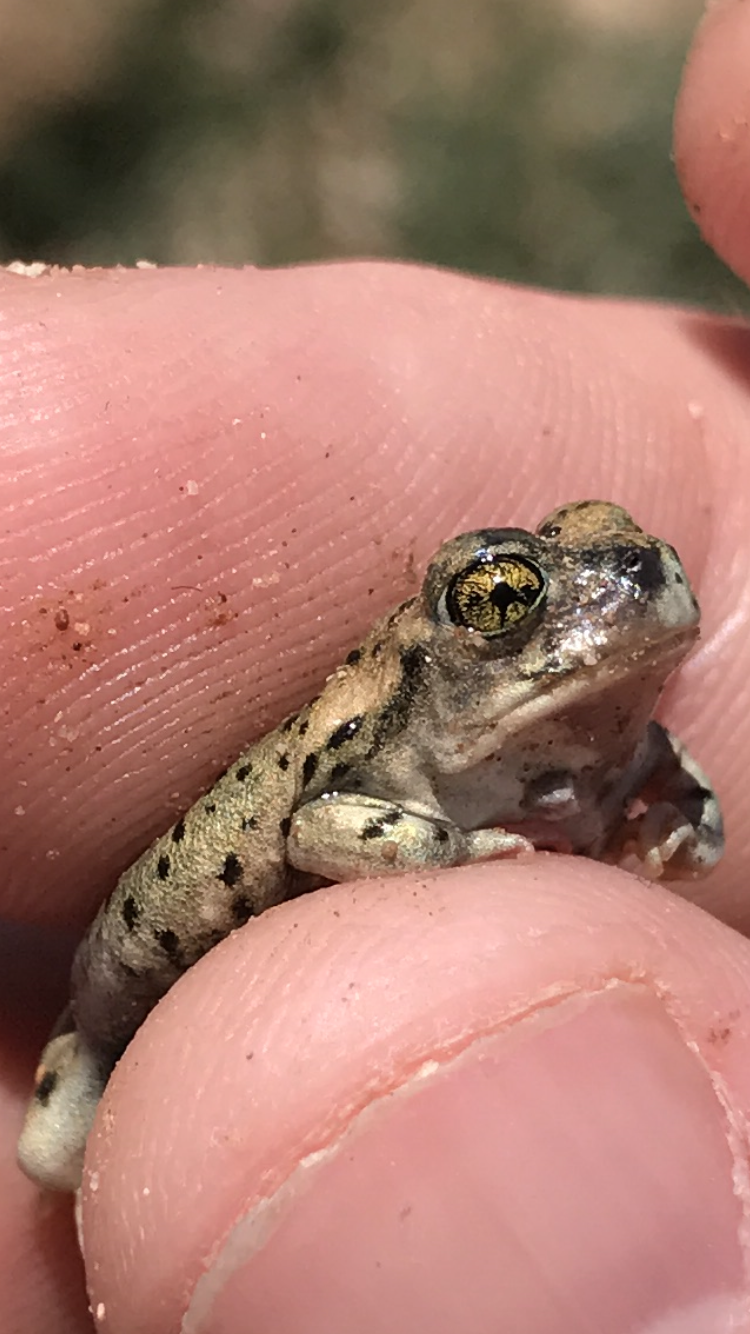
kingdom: Animalia
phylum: Chordata
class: Amphibia
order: Anura
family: Scaphiopodidae
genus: Spea
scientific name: Spea multiplicata
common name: Mexican spadefoot
